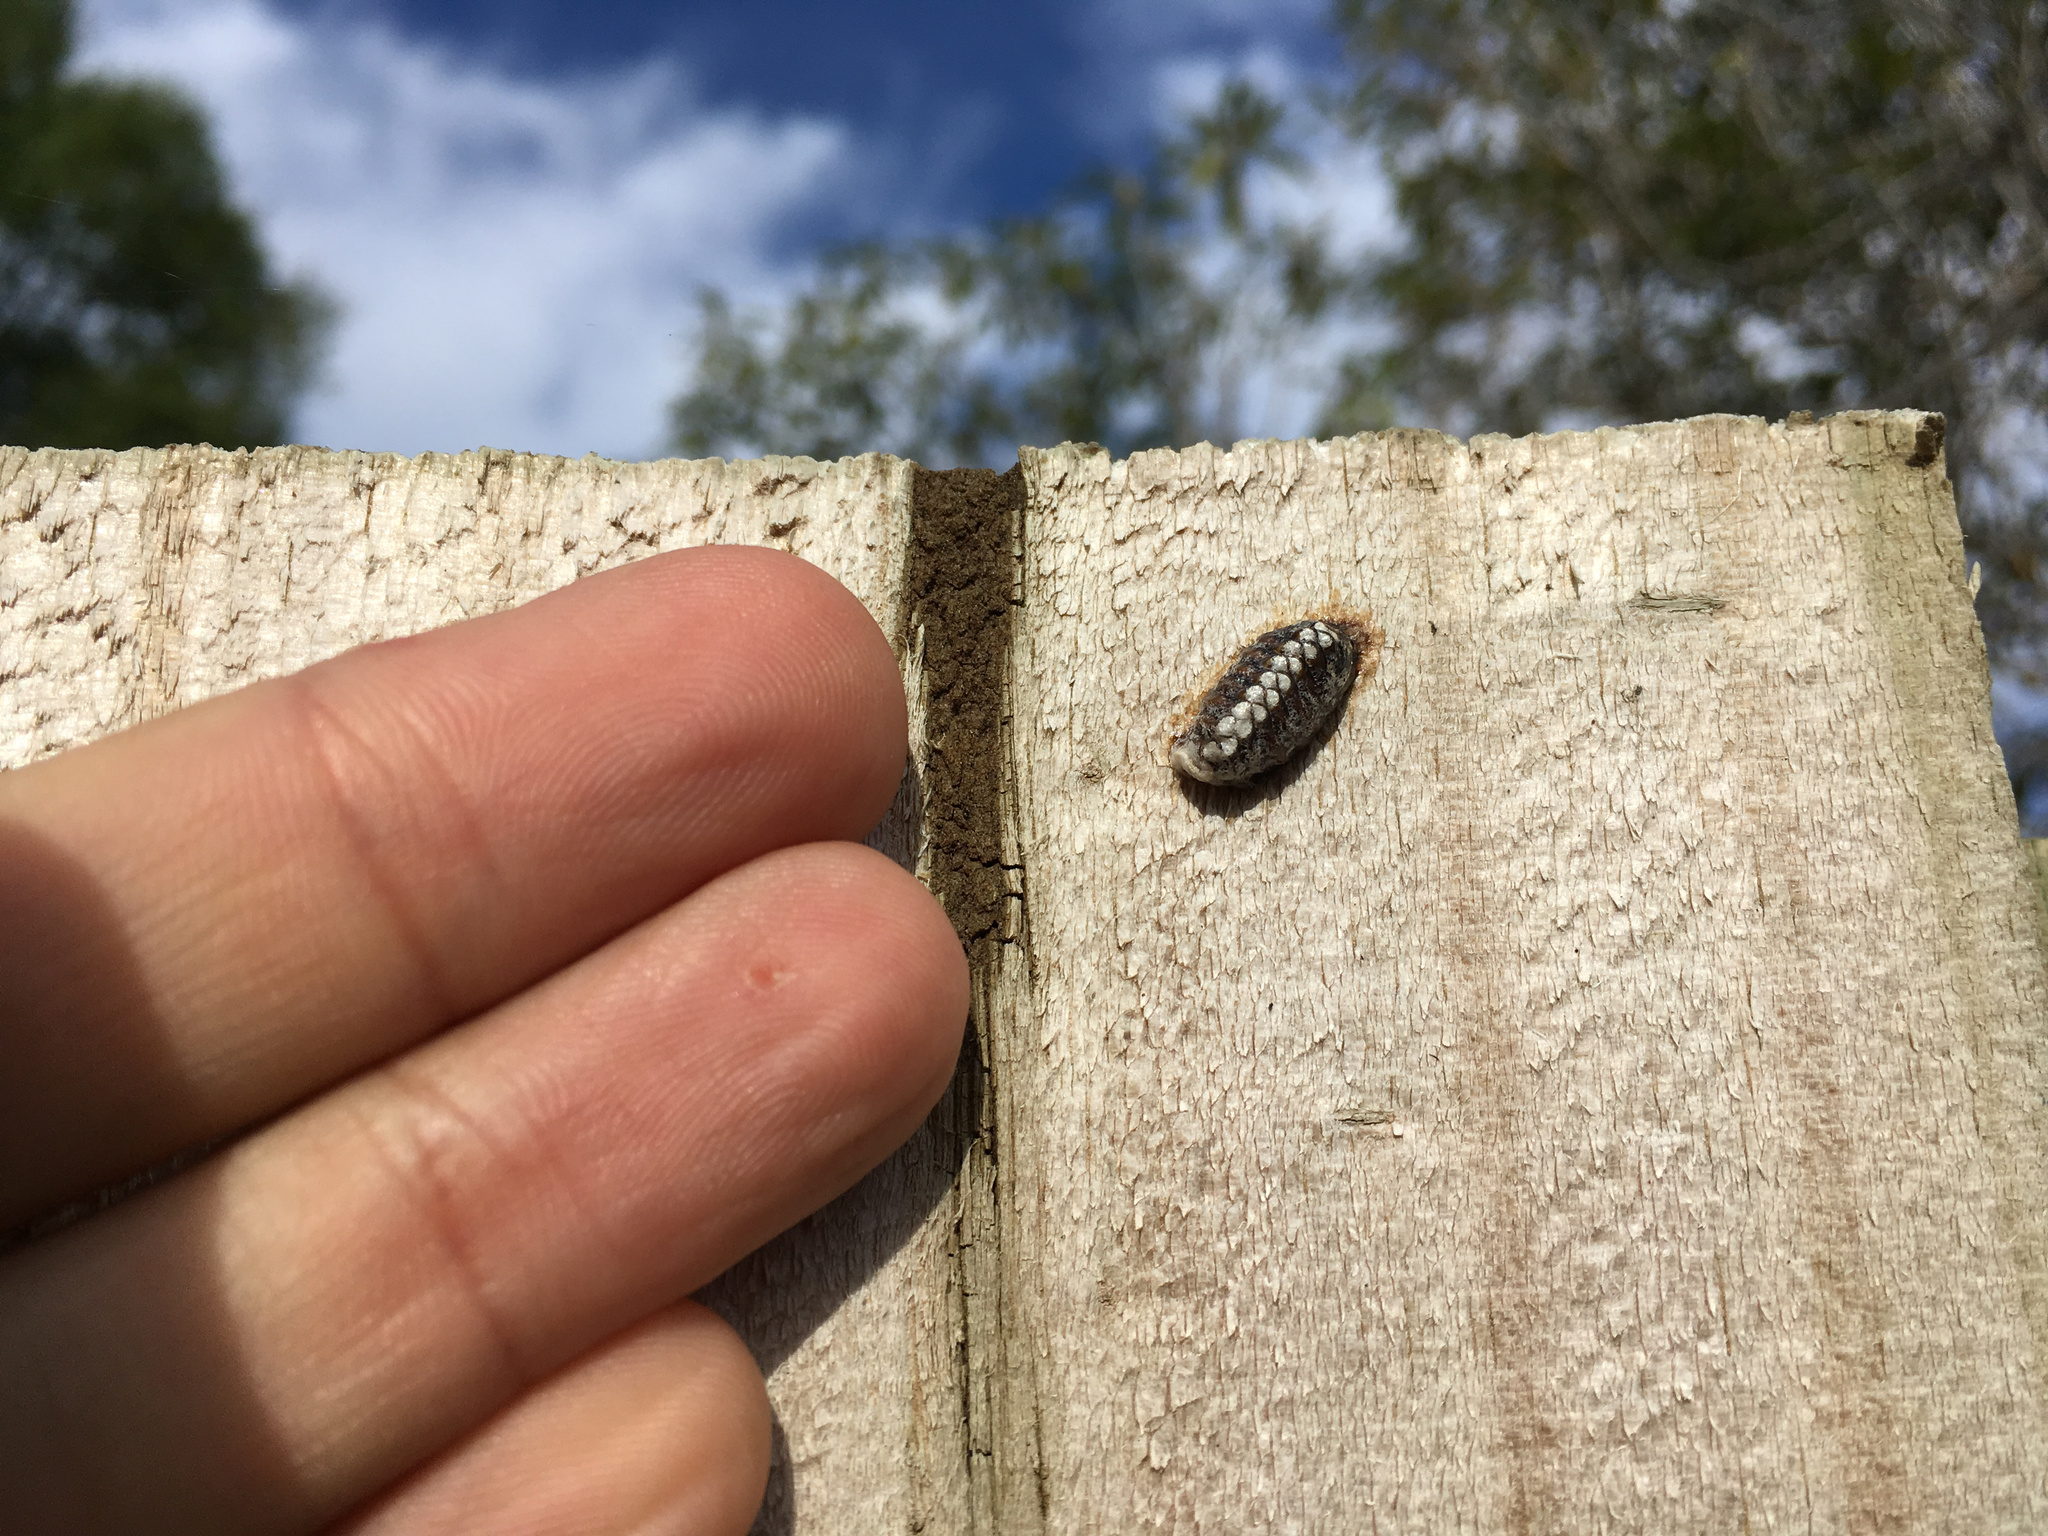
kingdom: Animalia
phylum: Arthropoda
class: Insecta
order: Mantodea
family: Mantidae
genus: Orthodera
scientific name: Orthodera novaezealandiae
